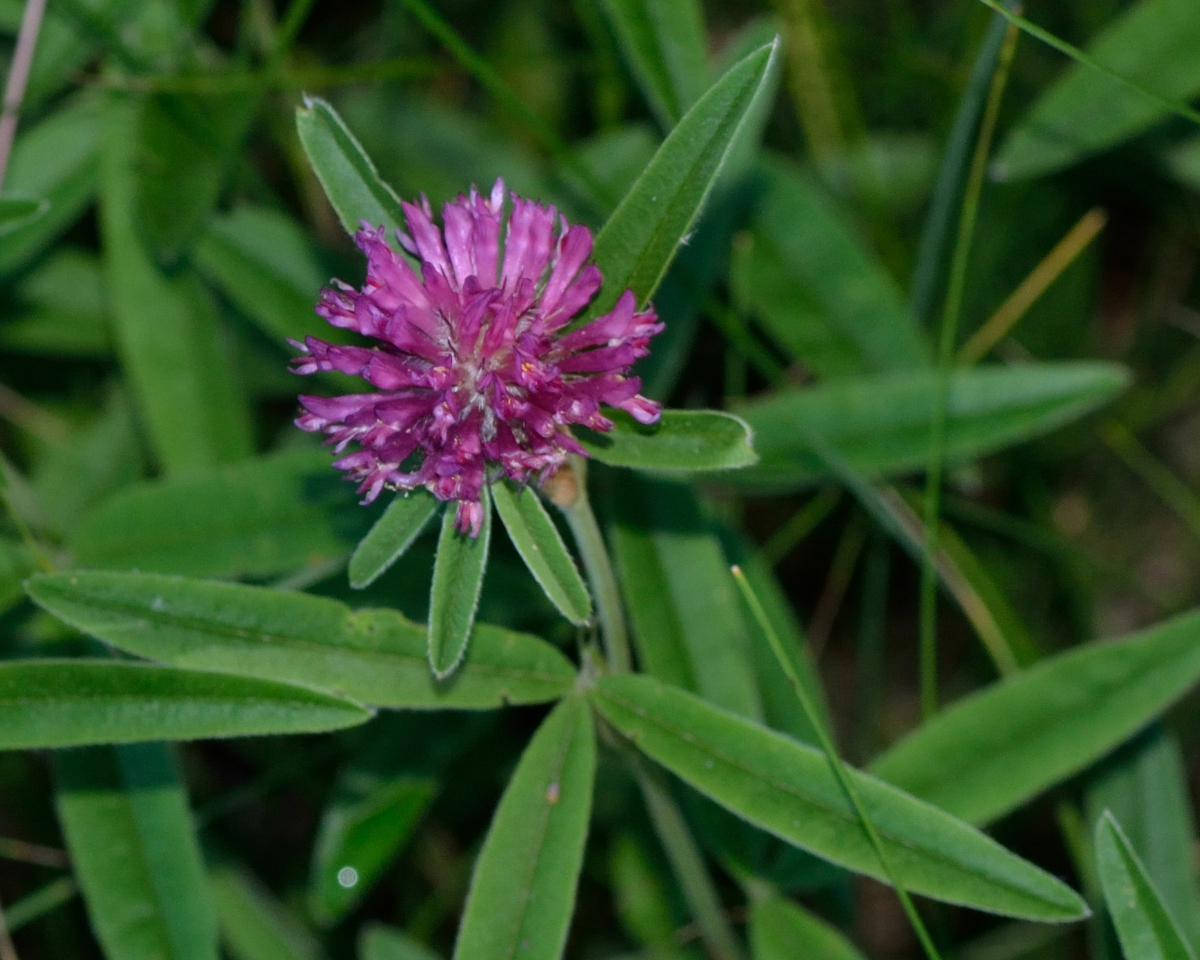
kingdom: Plantae
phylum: Tracheophyta
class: Magnoliopsida
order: Fabales
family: Fabaceae
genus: Trifolium
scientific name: Trifolium alpestre
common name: Owl-head clover
